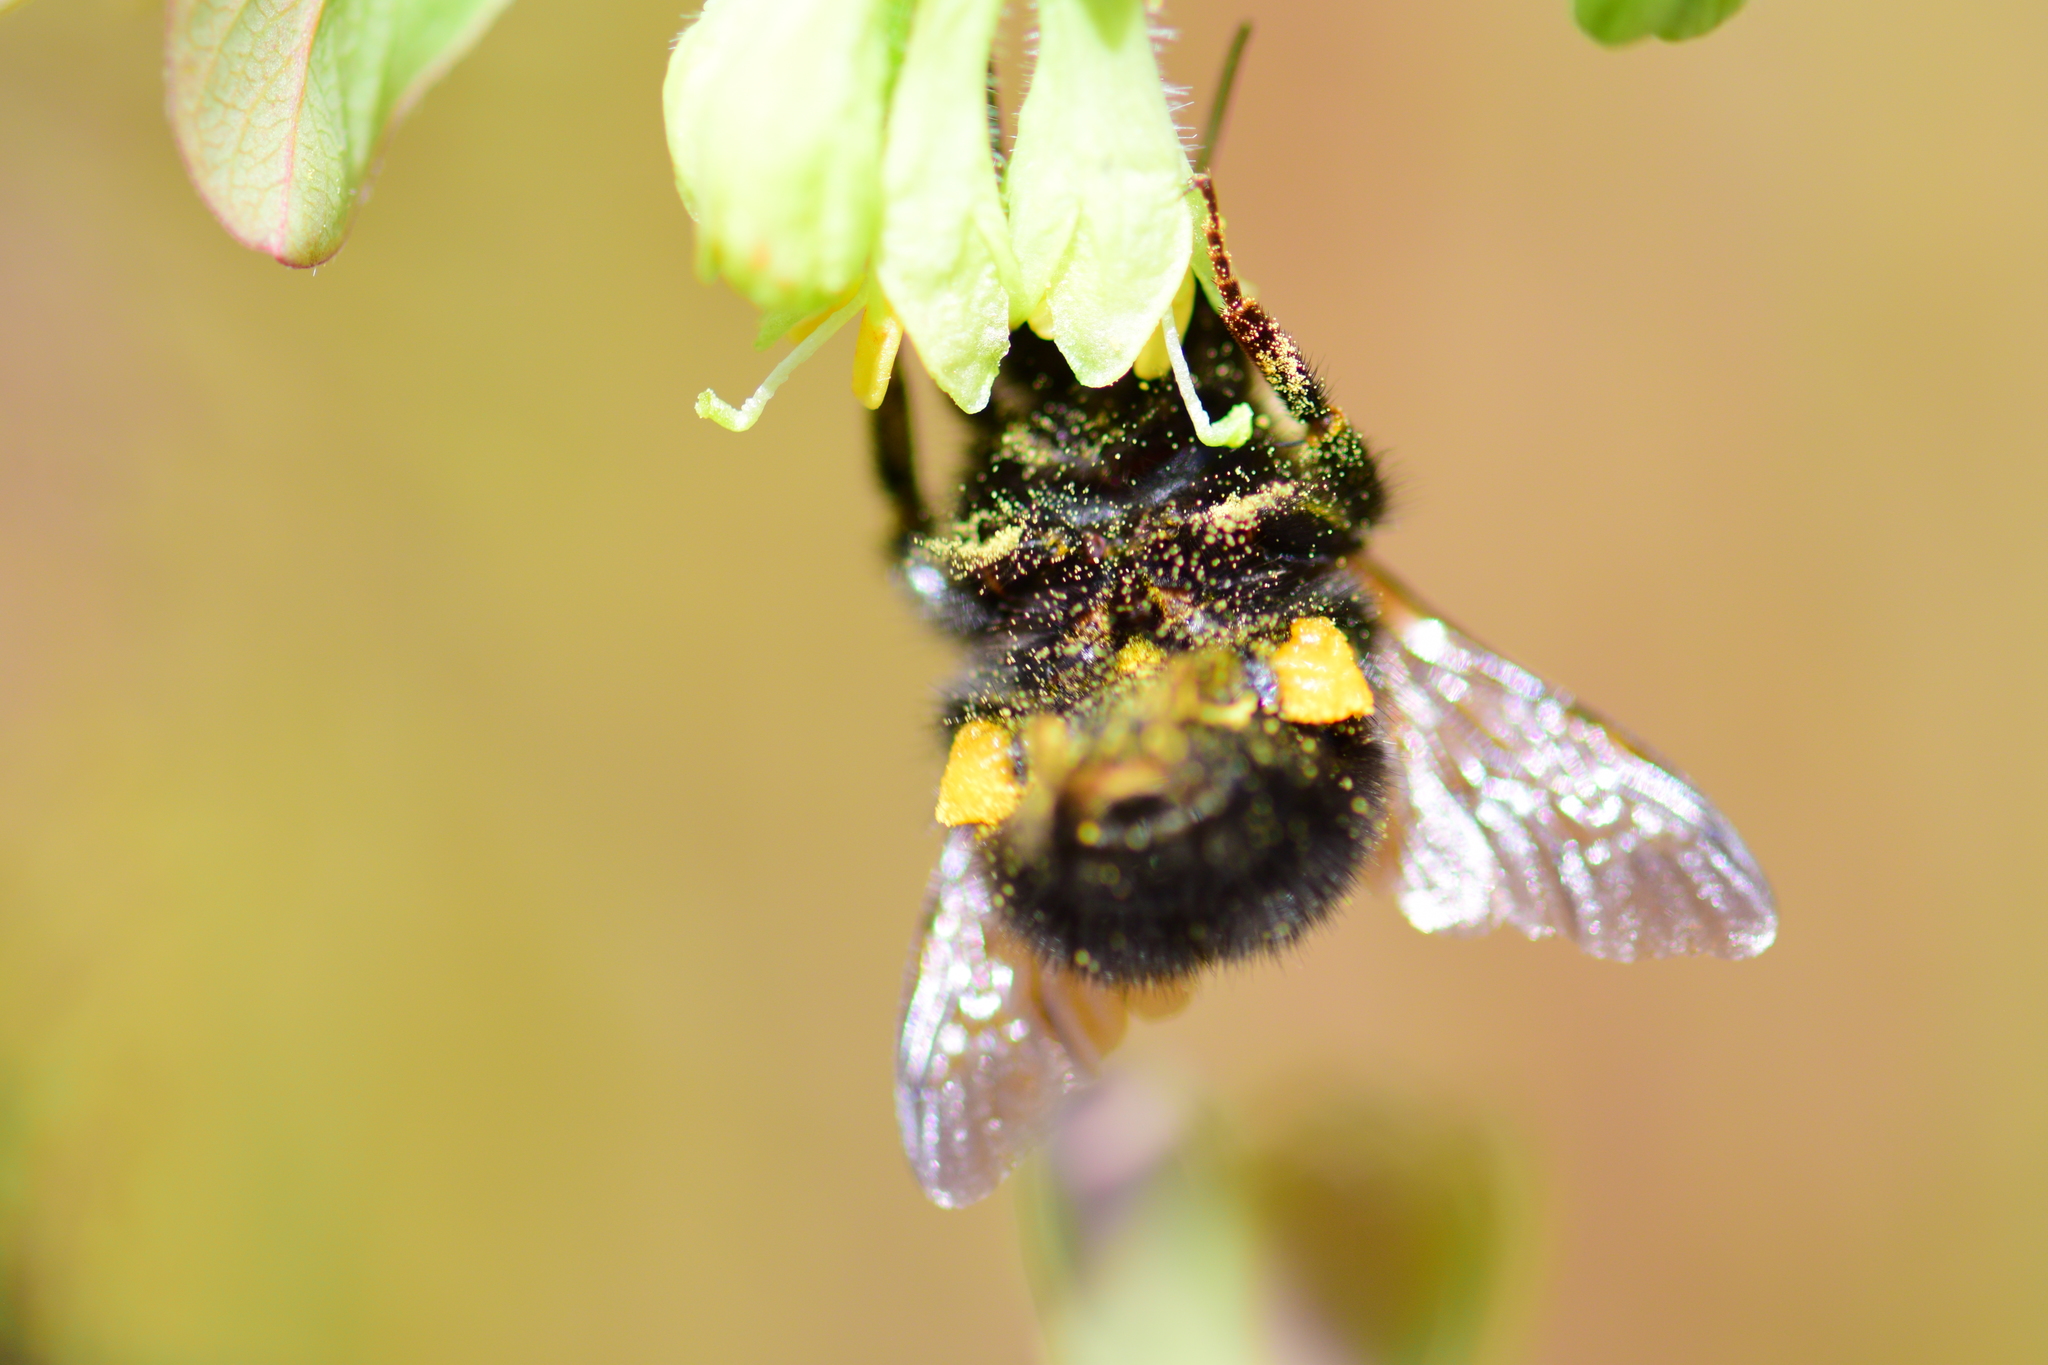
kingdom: Animalia
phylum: Arthropoda
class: Insecta
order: Hymenoptera
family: Apidae
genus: Bombus
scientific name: Bombus perplexus
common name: Confusing bumble bee
